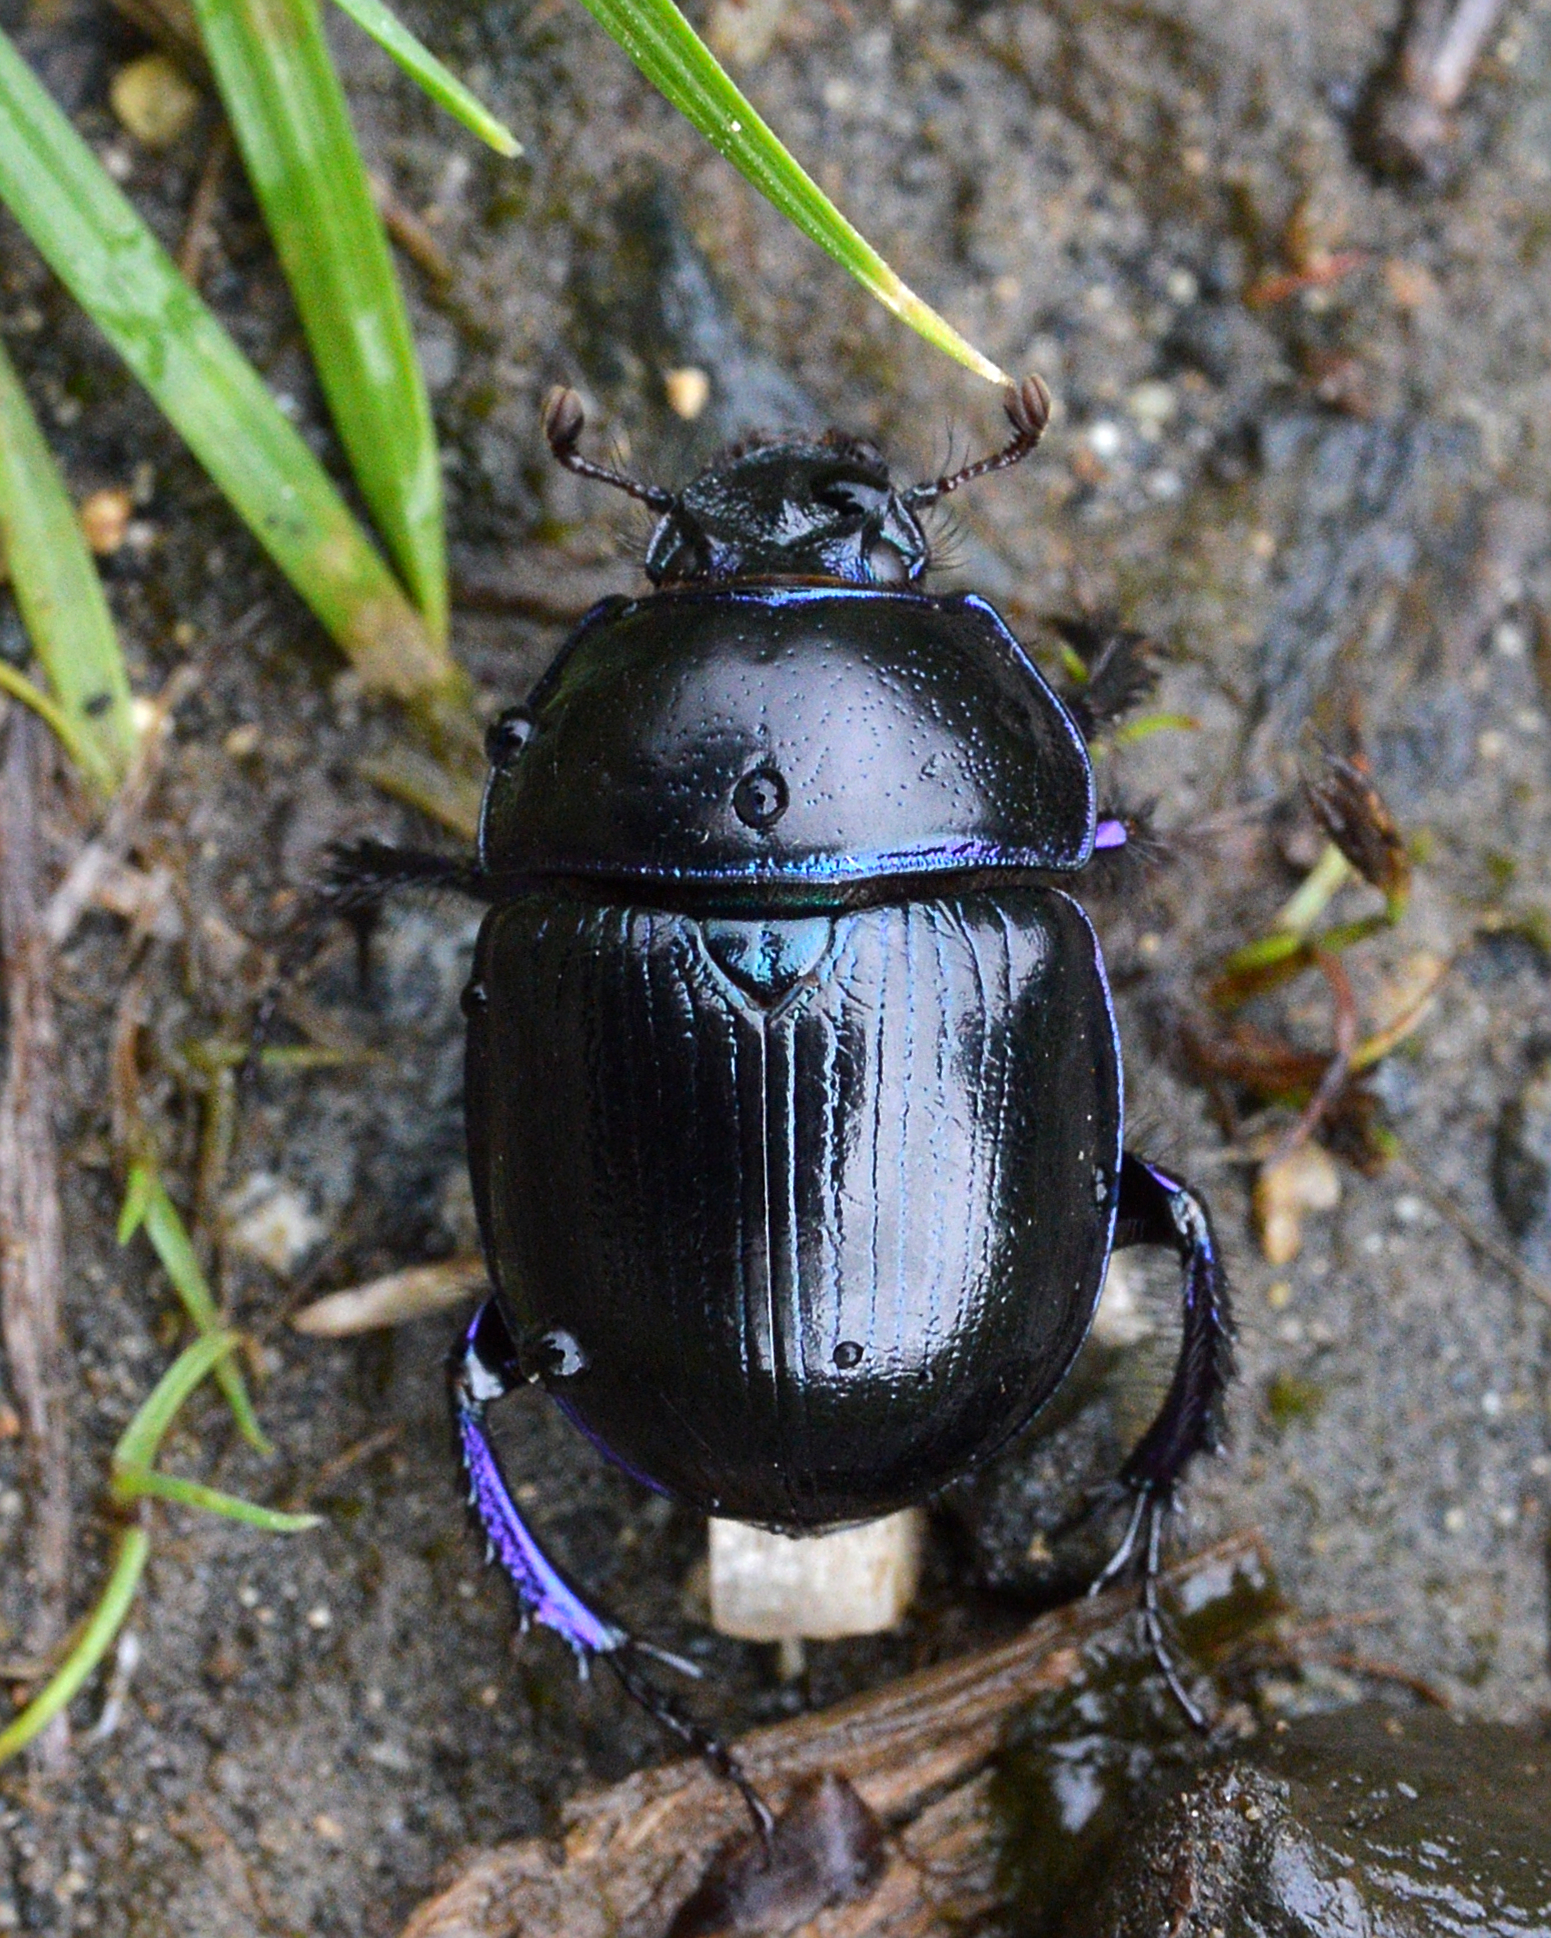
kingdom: Animalia
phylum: Arthropoda
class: Insecta
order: Coleoptera
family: Geotrupidae
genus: Anoplotrupes
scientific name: Anoplotrupes stercorosus
